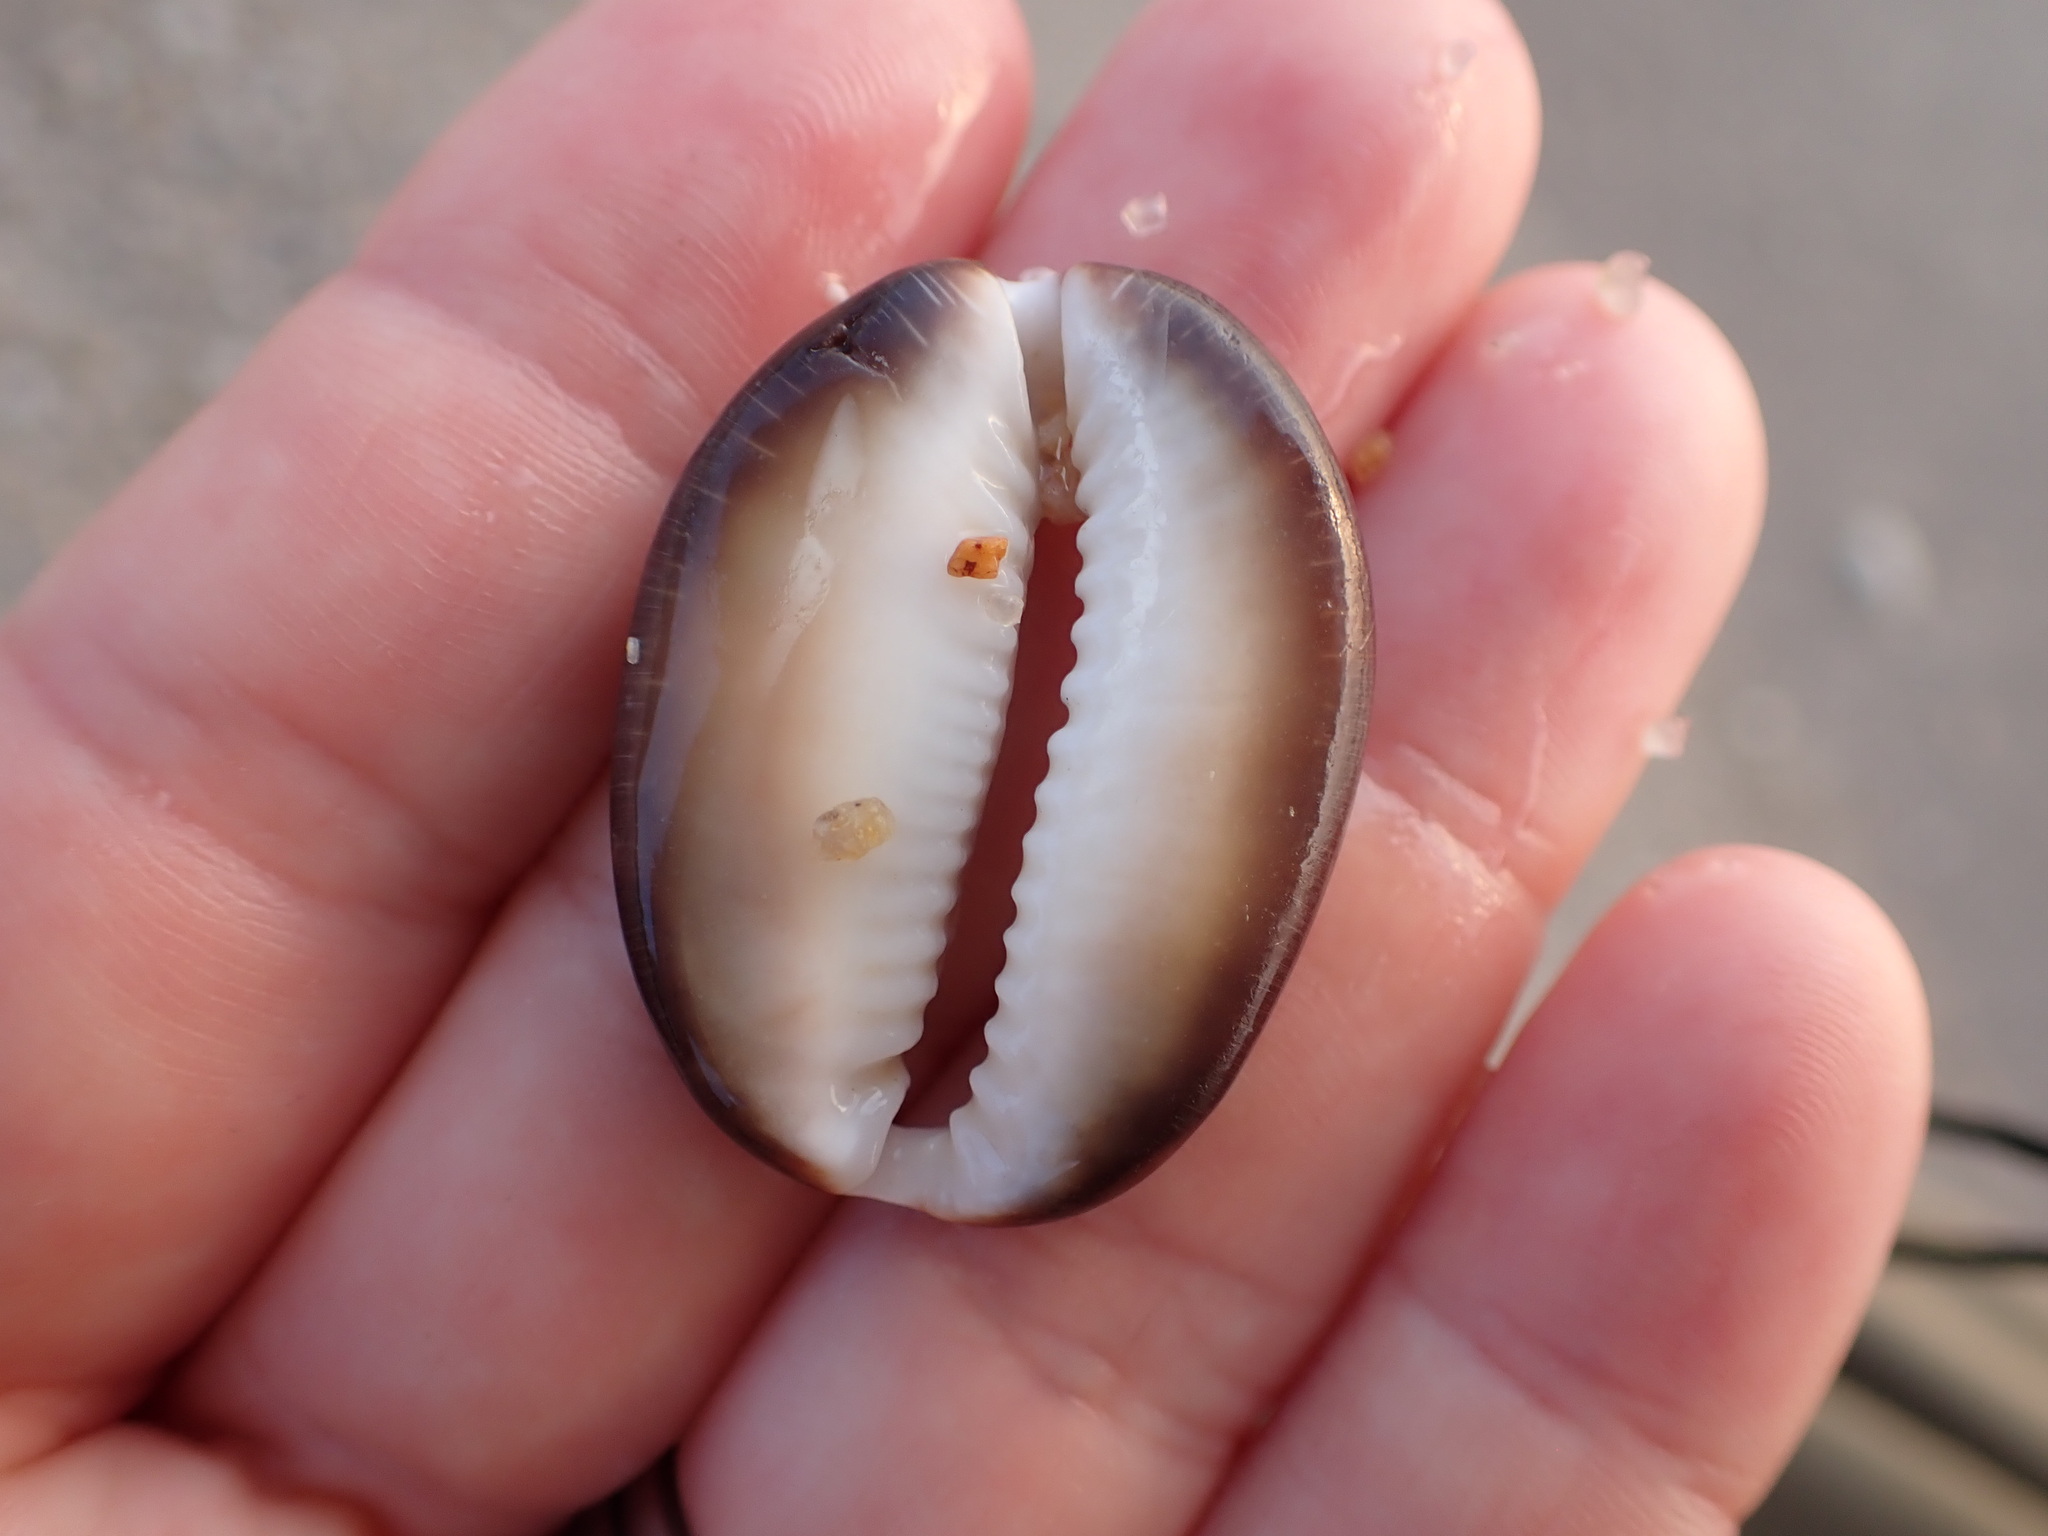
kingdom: Animalia
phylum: Mollusca
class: Gastropoda
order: Littorinimorpha
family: Cypraeidae
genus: Monetaria
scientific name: Monetaria caputserpentis
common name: Serpent's head cowrie
